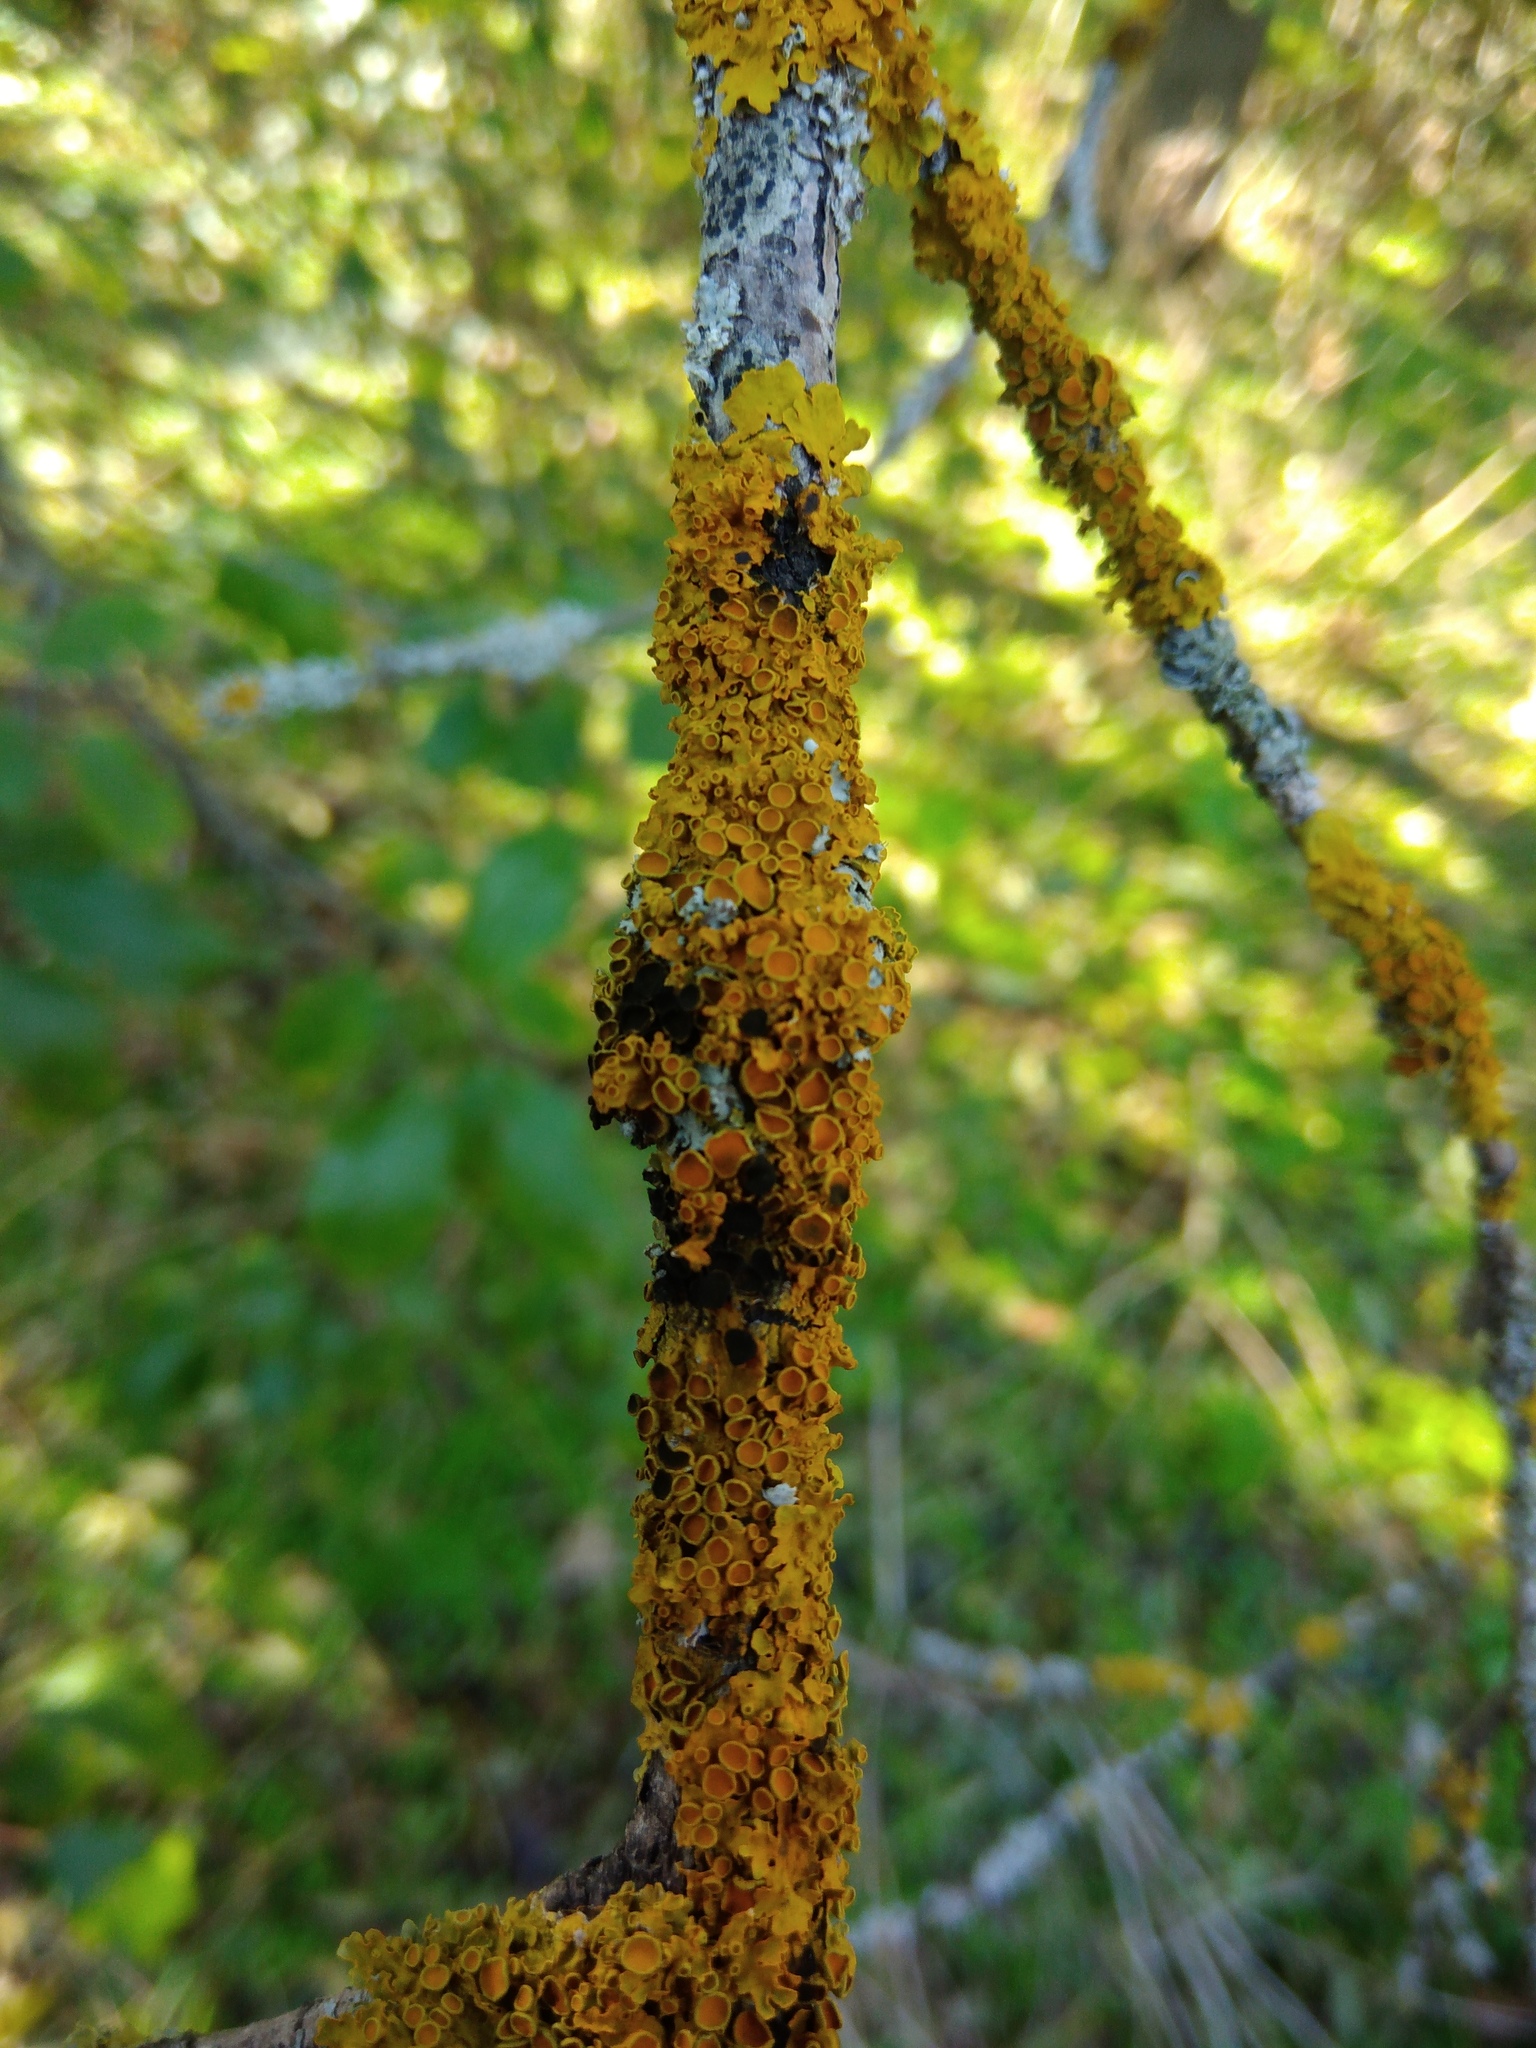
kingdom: Fungi
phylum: Ascomycota
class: Dothideomycetes
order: Mycosphaerellales
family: Teratosphaeriaceae
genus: Xanthoriicola
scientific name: Xanthoriicola physciae
